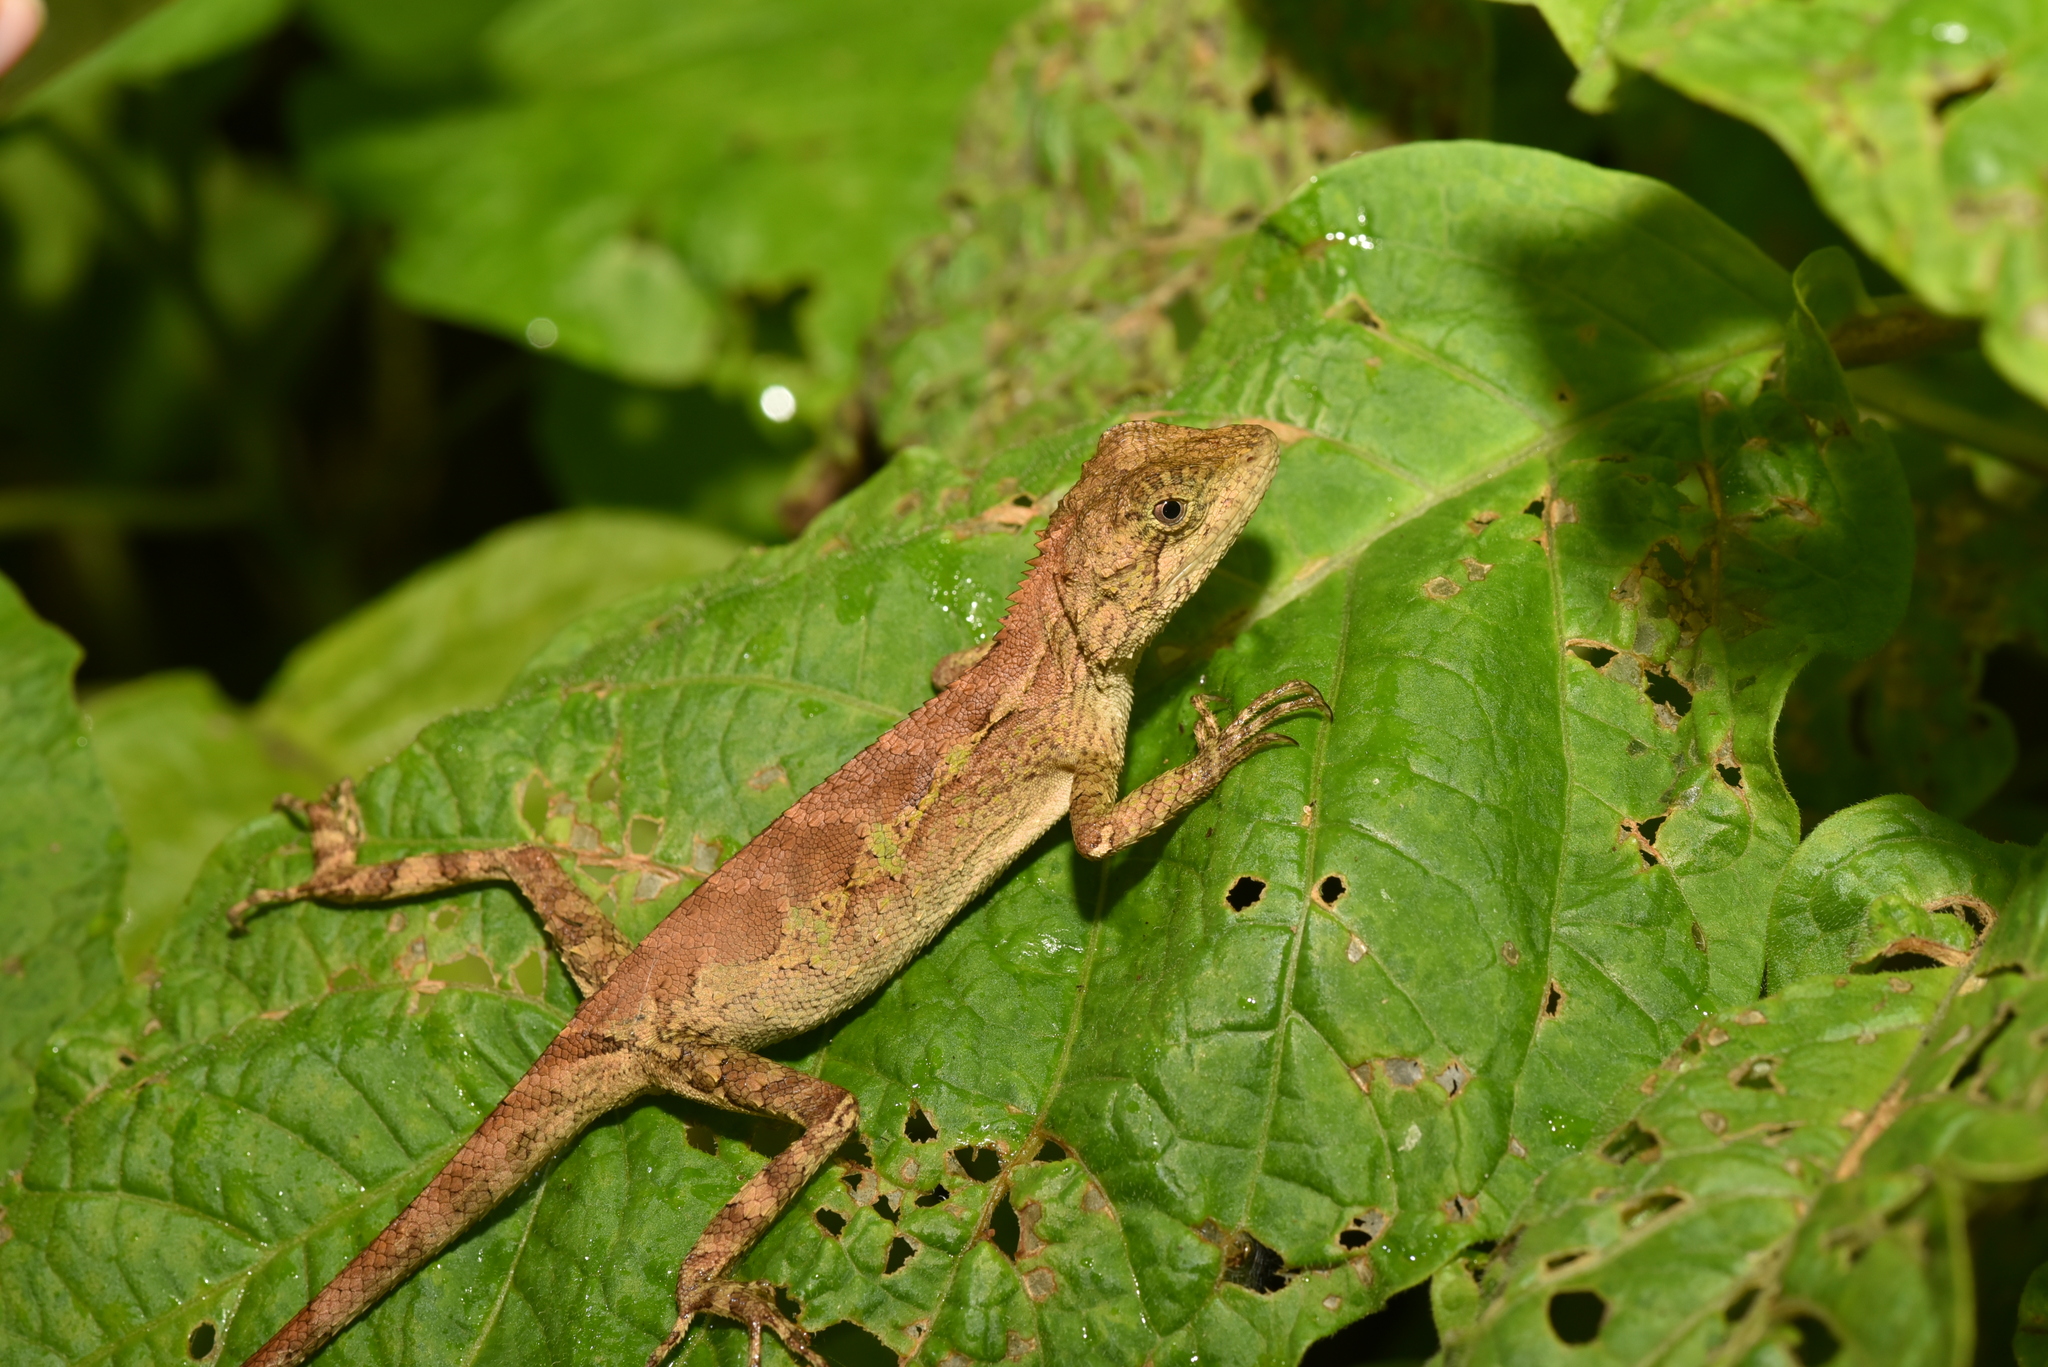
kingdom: Animalia
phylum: Chordata
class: Squamata
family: Agamidae
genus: Diploderma
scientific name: Diploderma swinhonis
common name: Taiwan japalure
